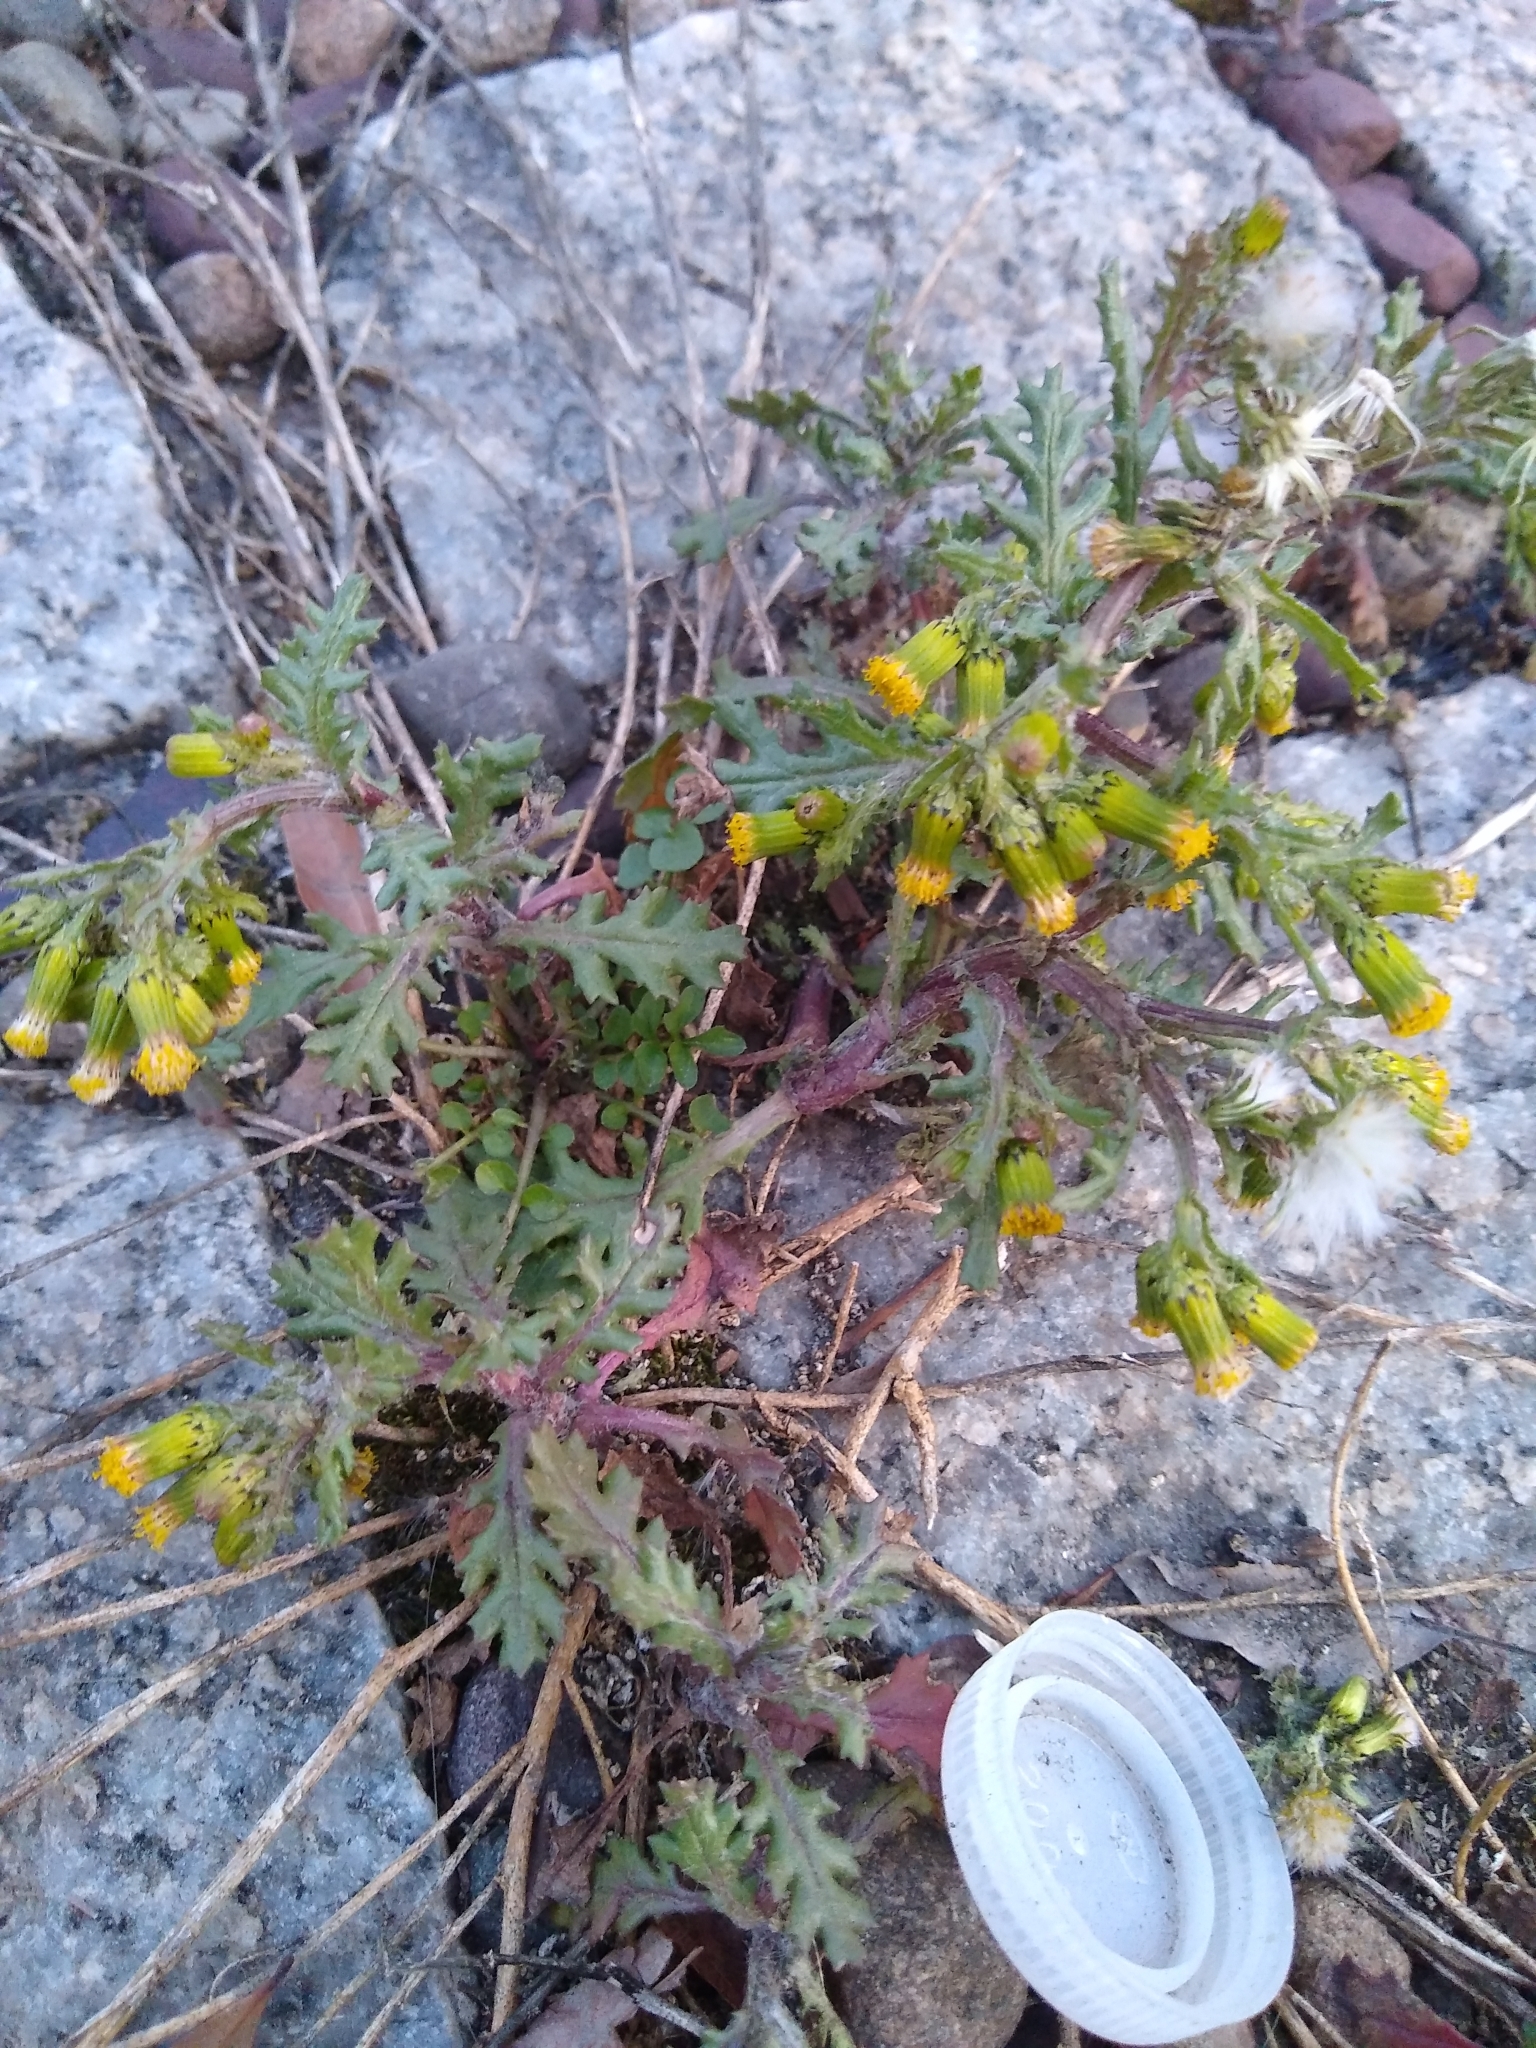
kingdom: Plantae
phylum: Tracheophyta
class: Magnoliopsida
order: Asterales
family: Asteraceae
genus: Senecio
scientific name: Senecio vulgaris
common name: Old-man-in-the-spring
